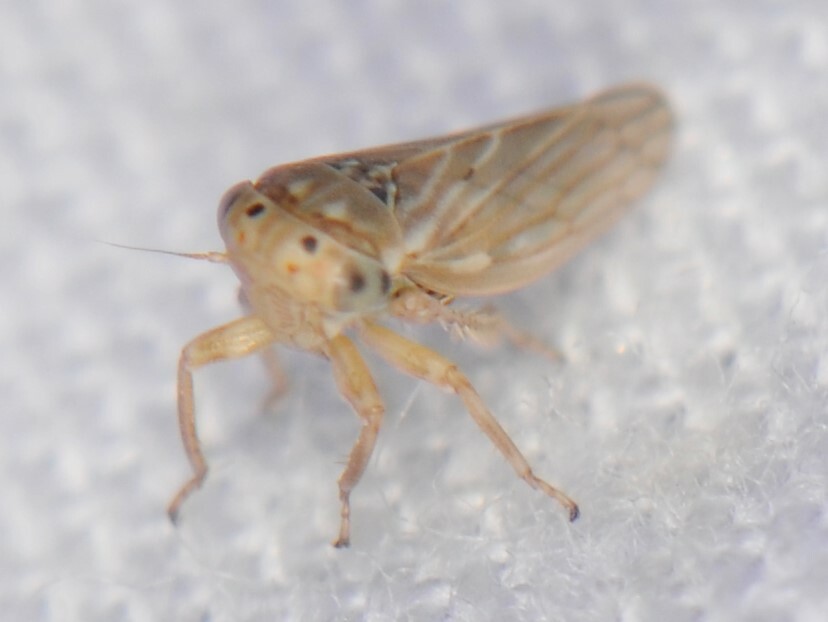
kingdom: Animalia
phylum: Arthropoda
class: Insecta
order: Hemiptera
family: Cicadellidae
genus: Ceratagallia
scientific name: Ceratagallia
